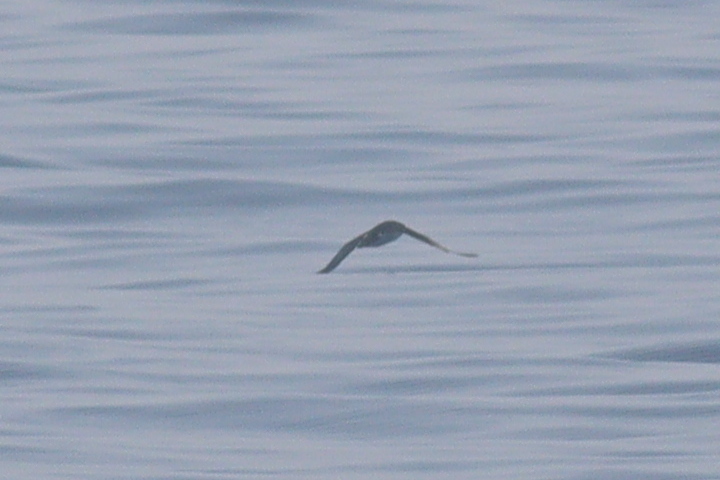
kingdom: Animalia
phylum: Chordata
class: Aves
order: Procellariiformes
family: Procellariidae
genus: Puffinus
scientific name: Puffinus puffinus
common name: Manx shearwater
